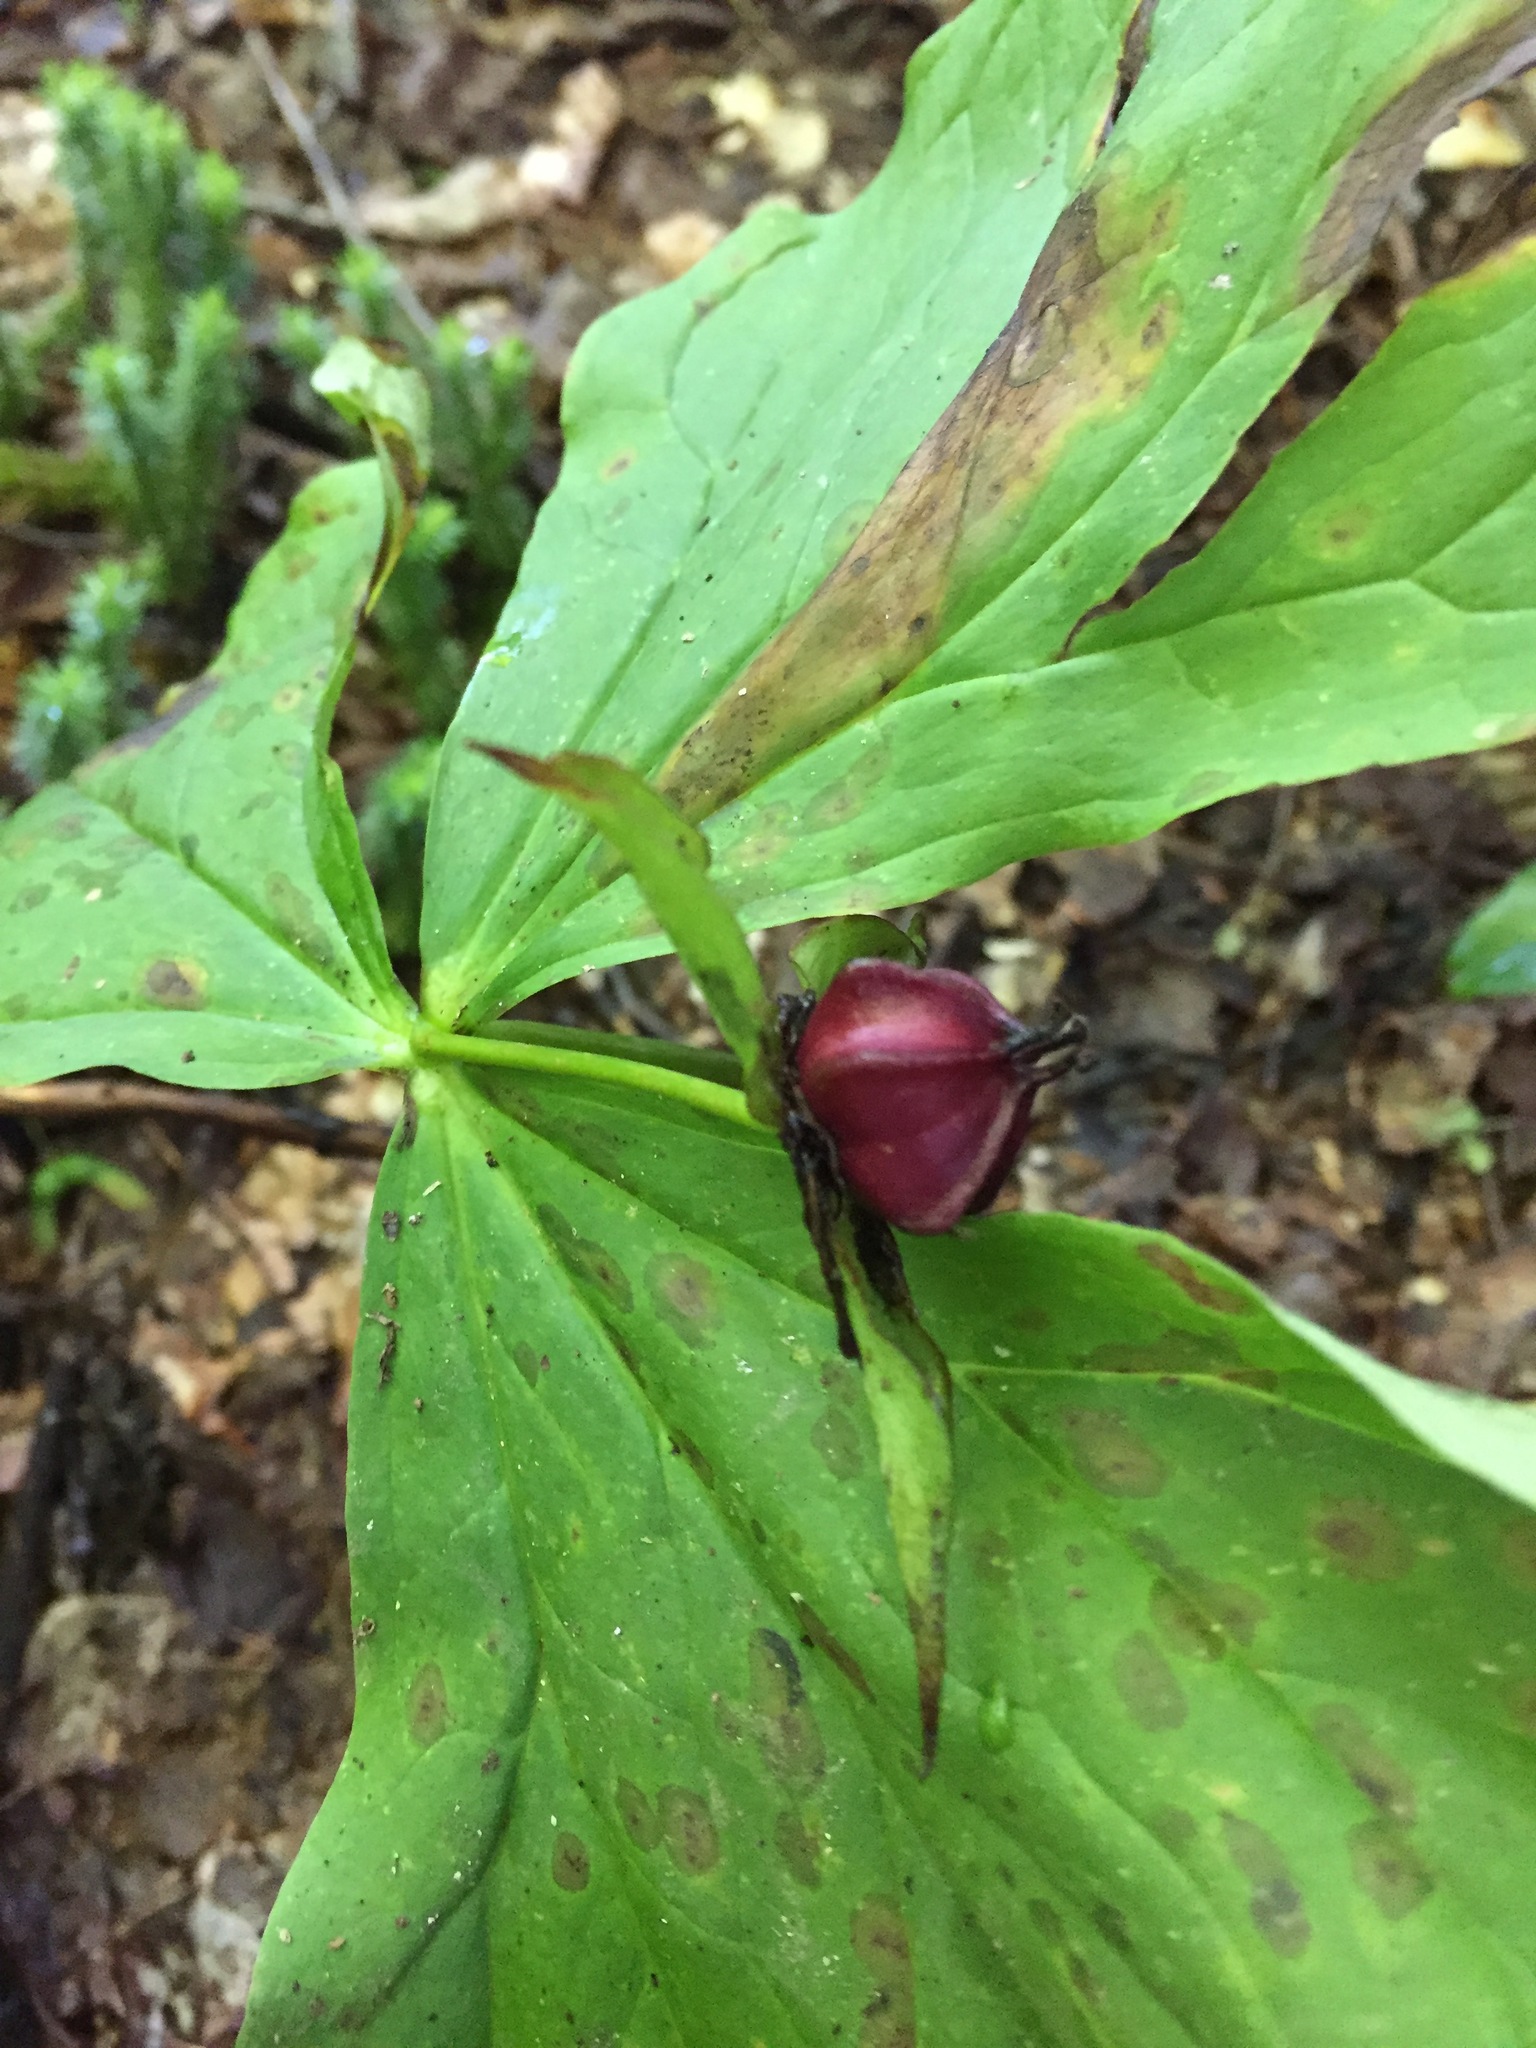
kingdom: Plantae
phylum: Tracheophyta
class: Liliopsida
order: Liliales
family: Melanthiaceae
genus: Trillium
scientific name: Trillium erectum
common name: Purple trillium
